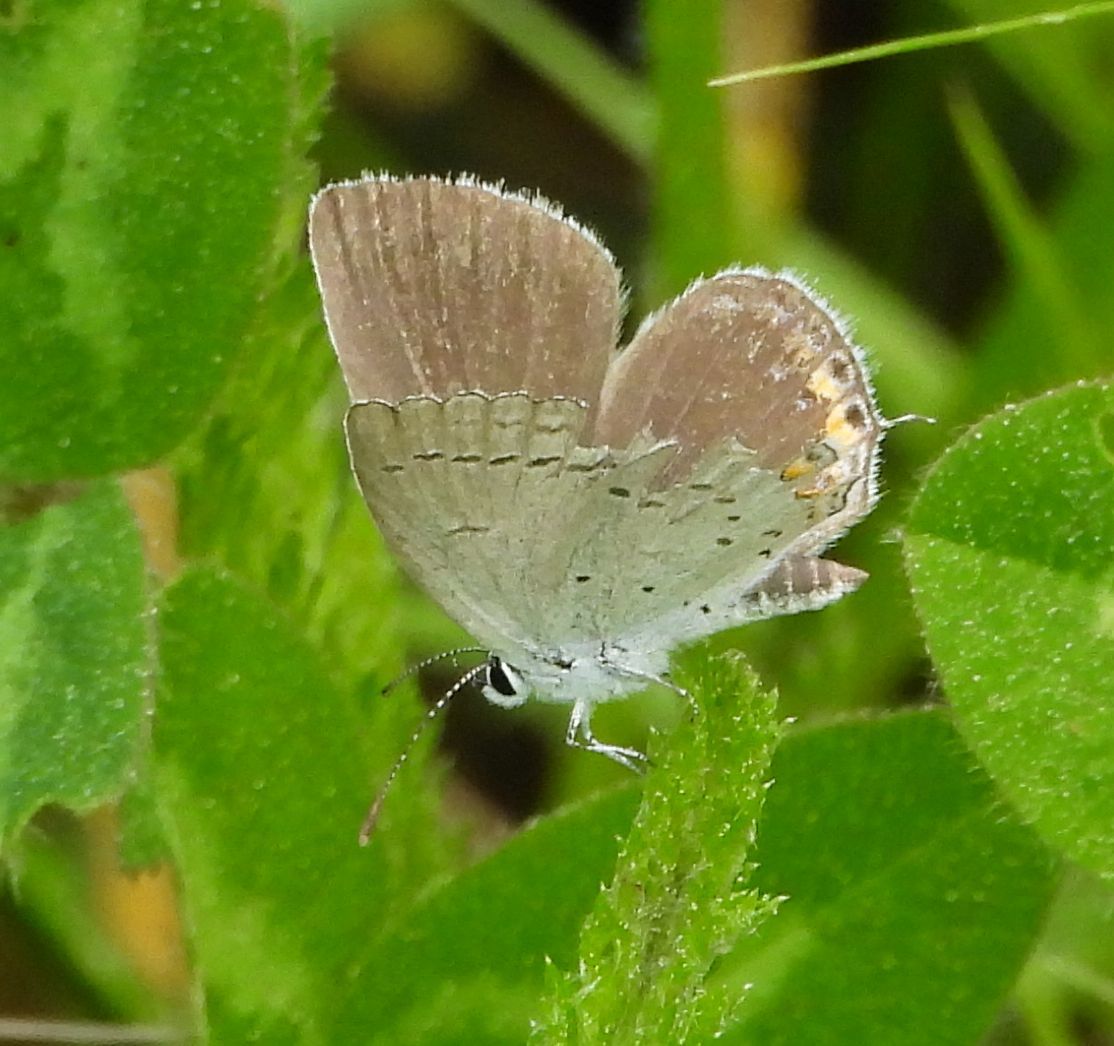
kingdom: Animalia
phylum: Arthropoda
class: Insecta
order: Lepidoptera
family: Lycaenidae
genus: Elkalyce
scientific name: Elkalyce comyntas
